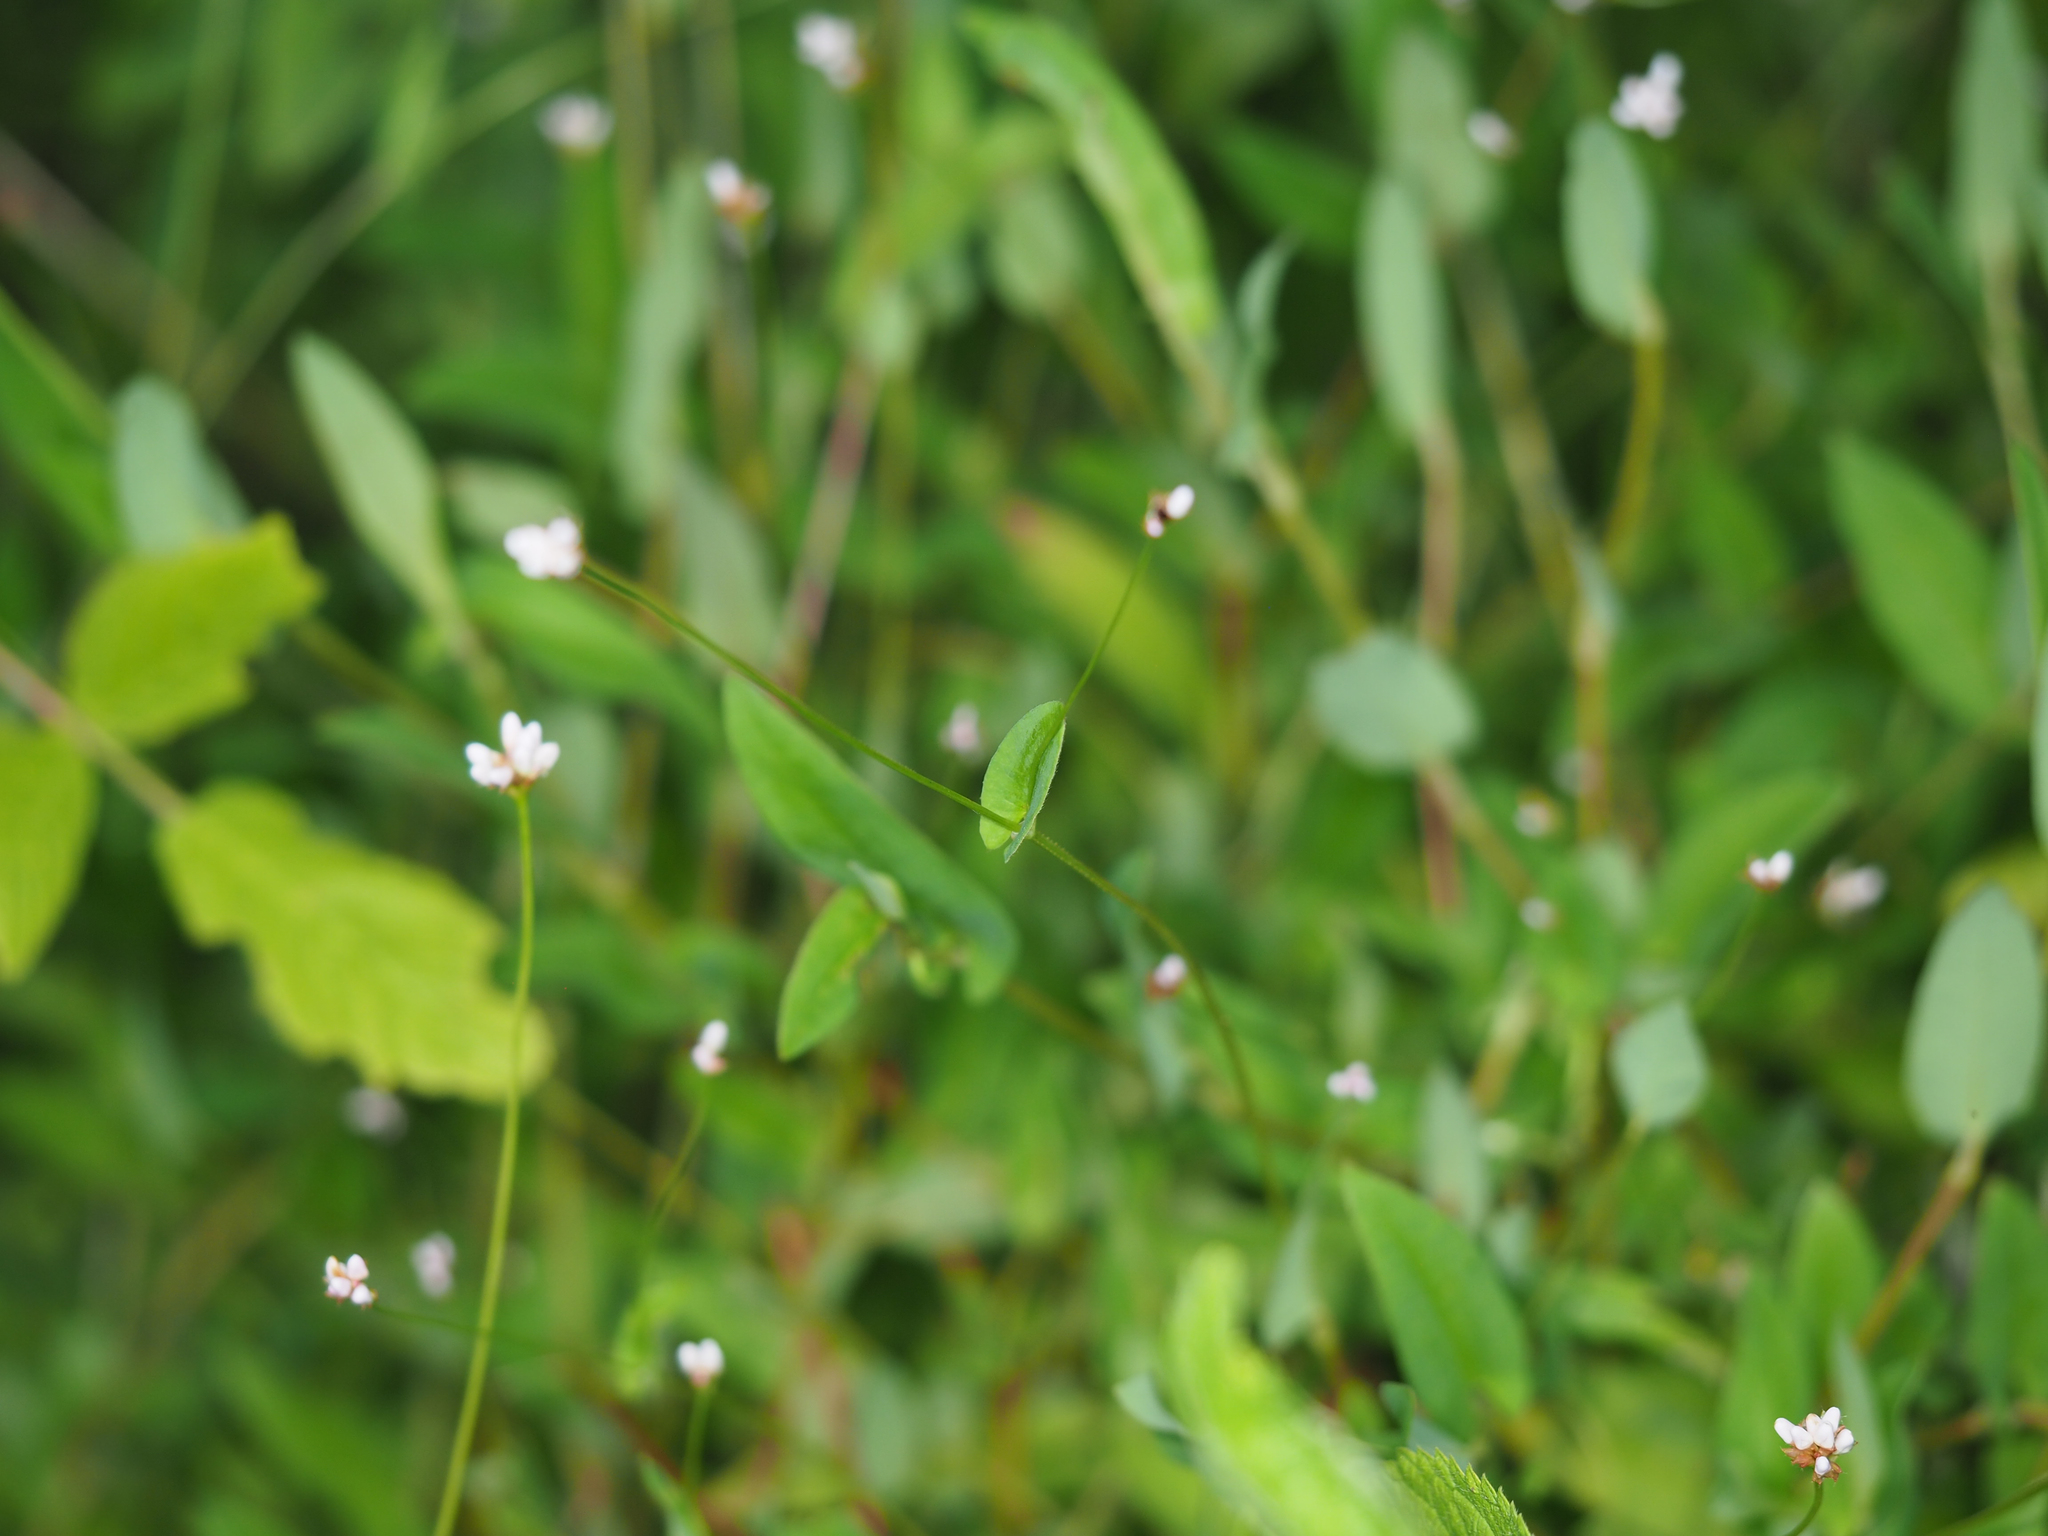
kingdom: Plantae
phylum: Tracheophyta
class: Magnoliopsida
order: Caryophyllales
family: Polygonaceae
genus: Persicaria
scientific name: Persicaria sagittata
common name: American tearthumb
